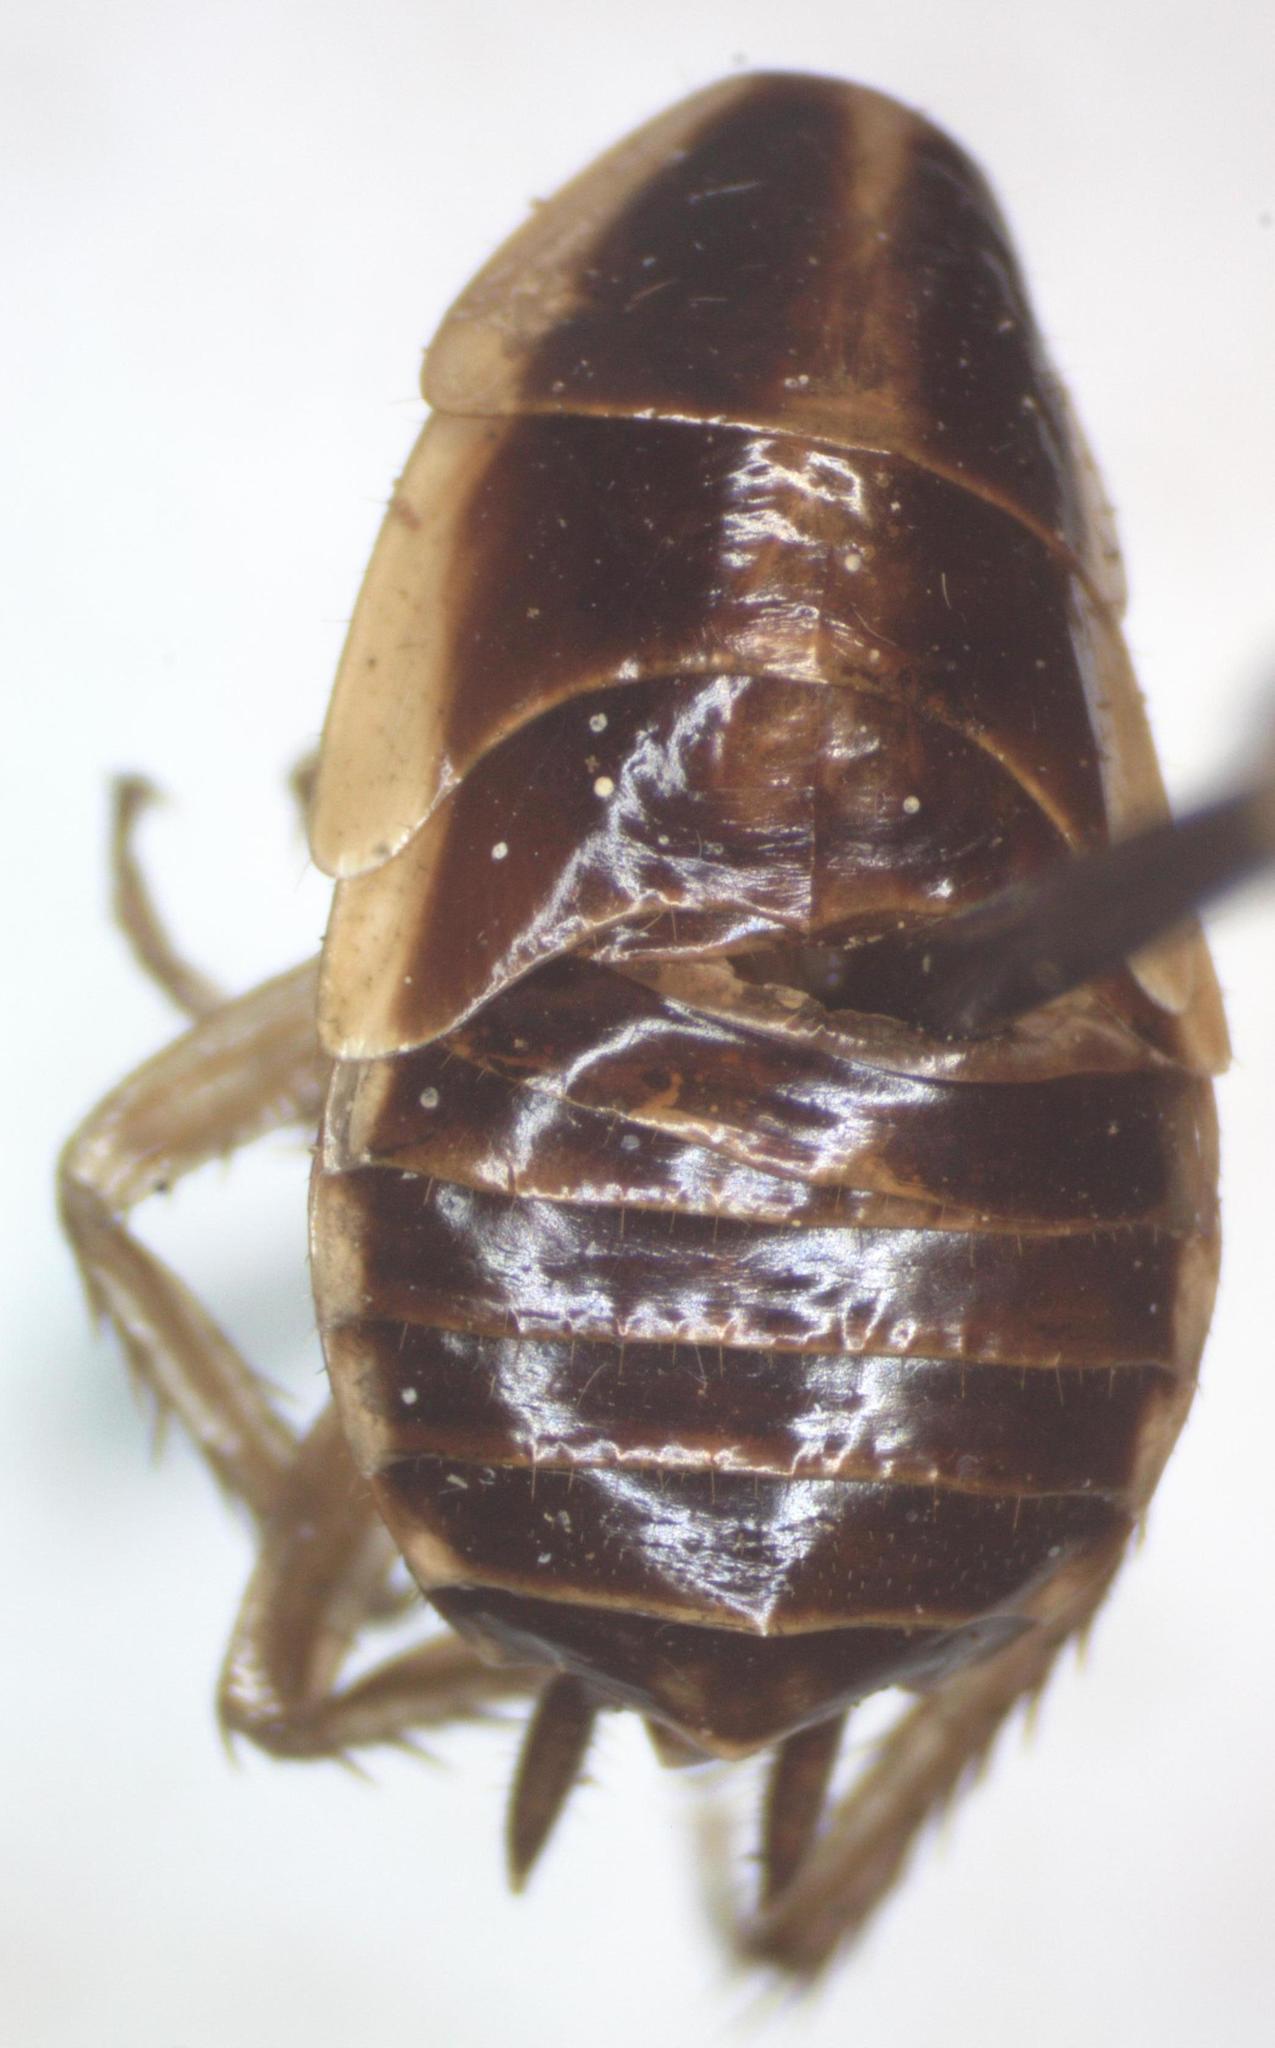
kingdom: Animalia
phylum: Arthropoda
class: Insecta
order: Blattodea
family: Ectobiidae
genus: Blattella
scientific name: Blattella germanica
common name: German cockroach
